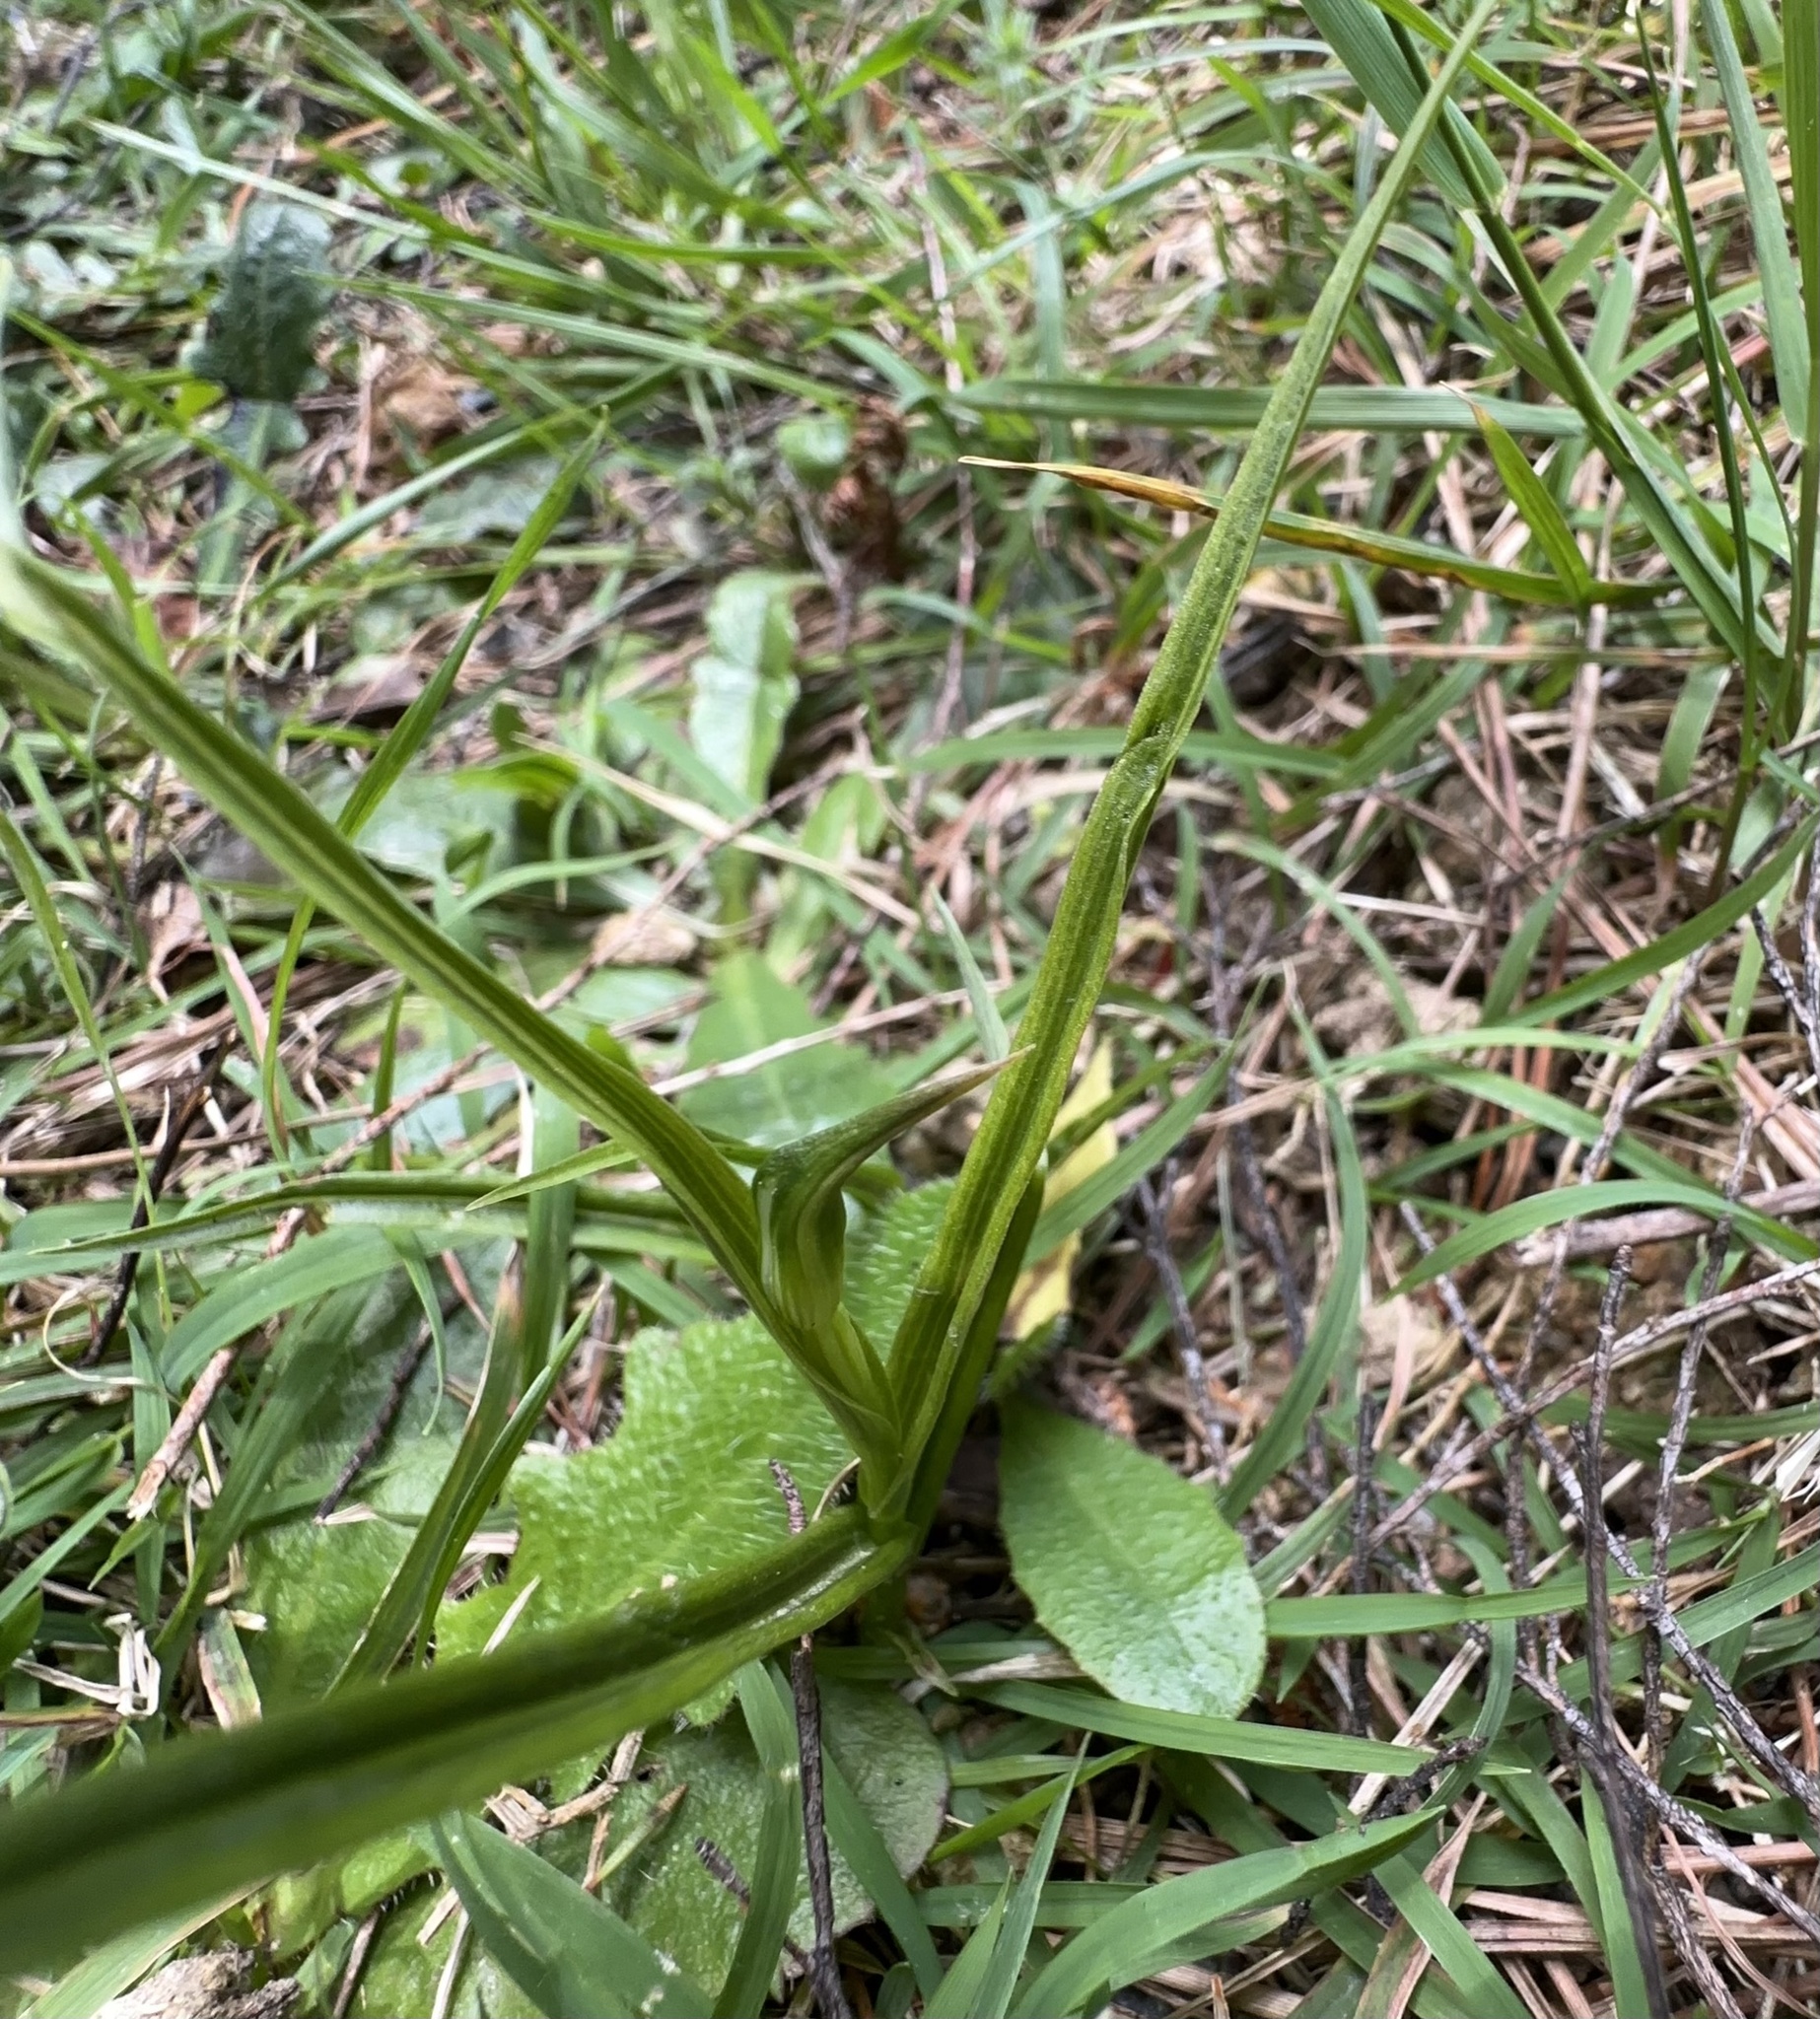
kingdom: Plantae
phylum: Tracheophyta
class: Liliopsida
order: Asparagales
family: Orchidaceae
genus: Pterostylis
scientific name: Pterostylis graminea
